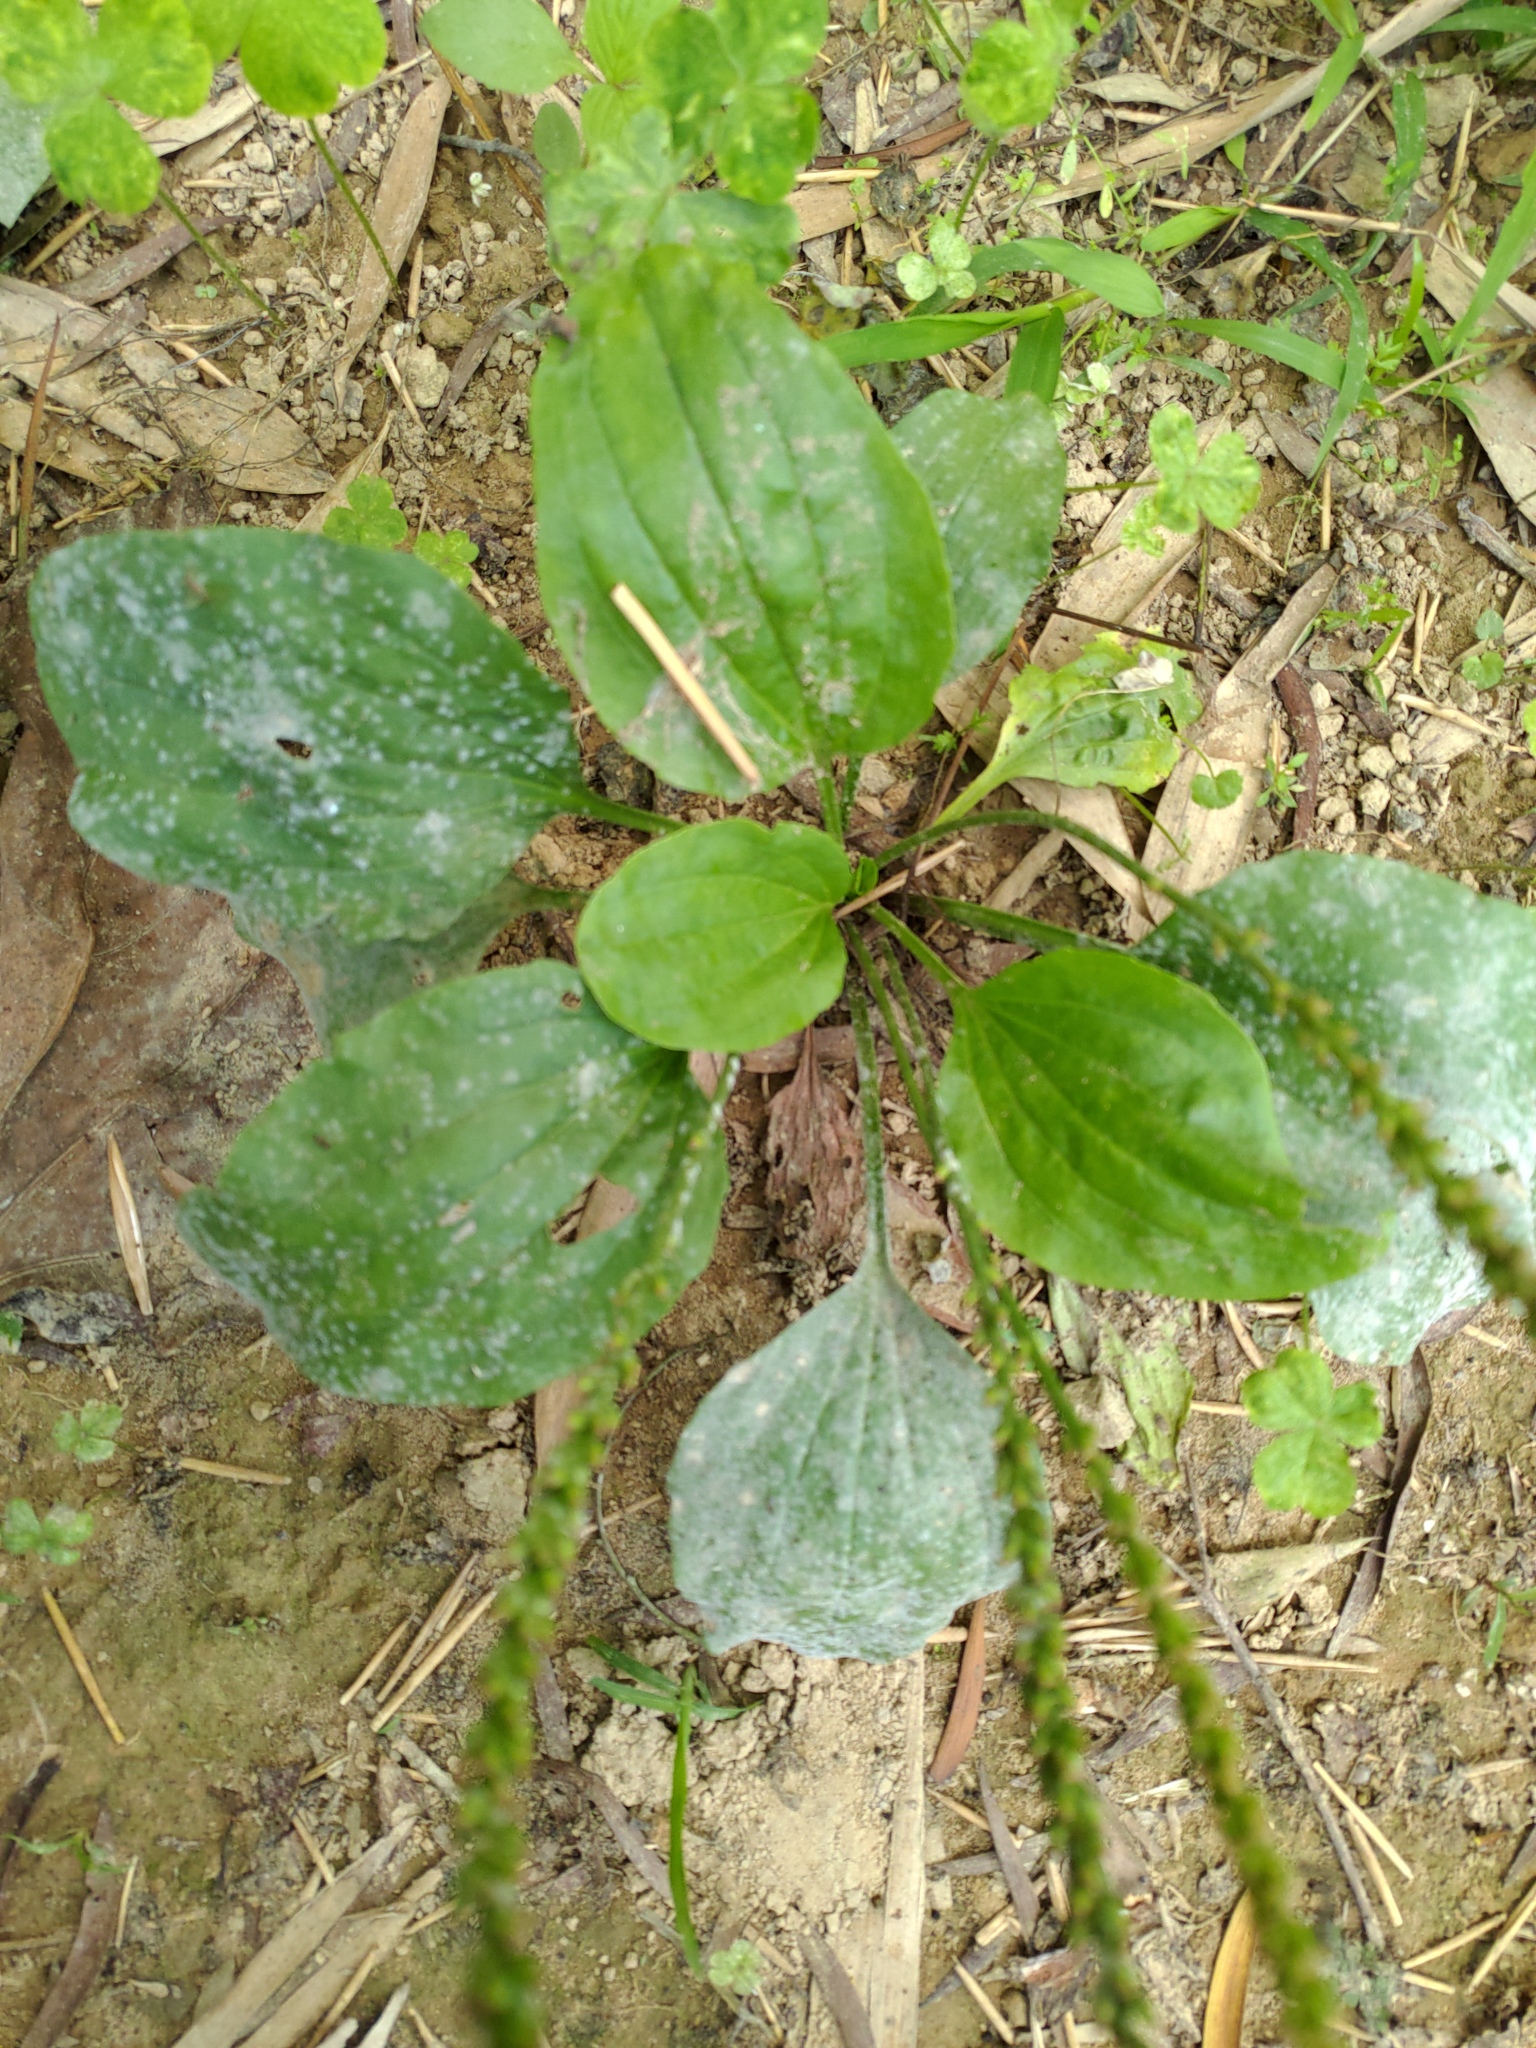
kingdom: Plantae
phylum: Tracheophyta
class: Magnoliopsida
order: Lamiales
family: Plantaginaceae
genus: Plantago
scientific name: Plantago asiatica
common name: Psyllium
